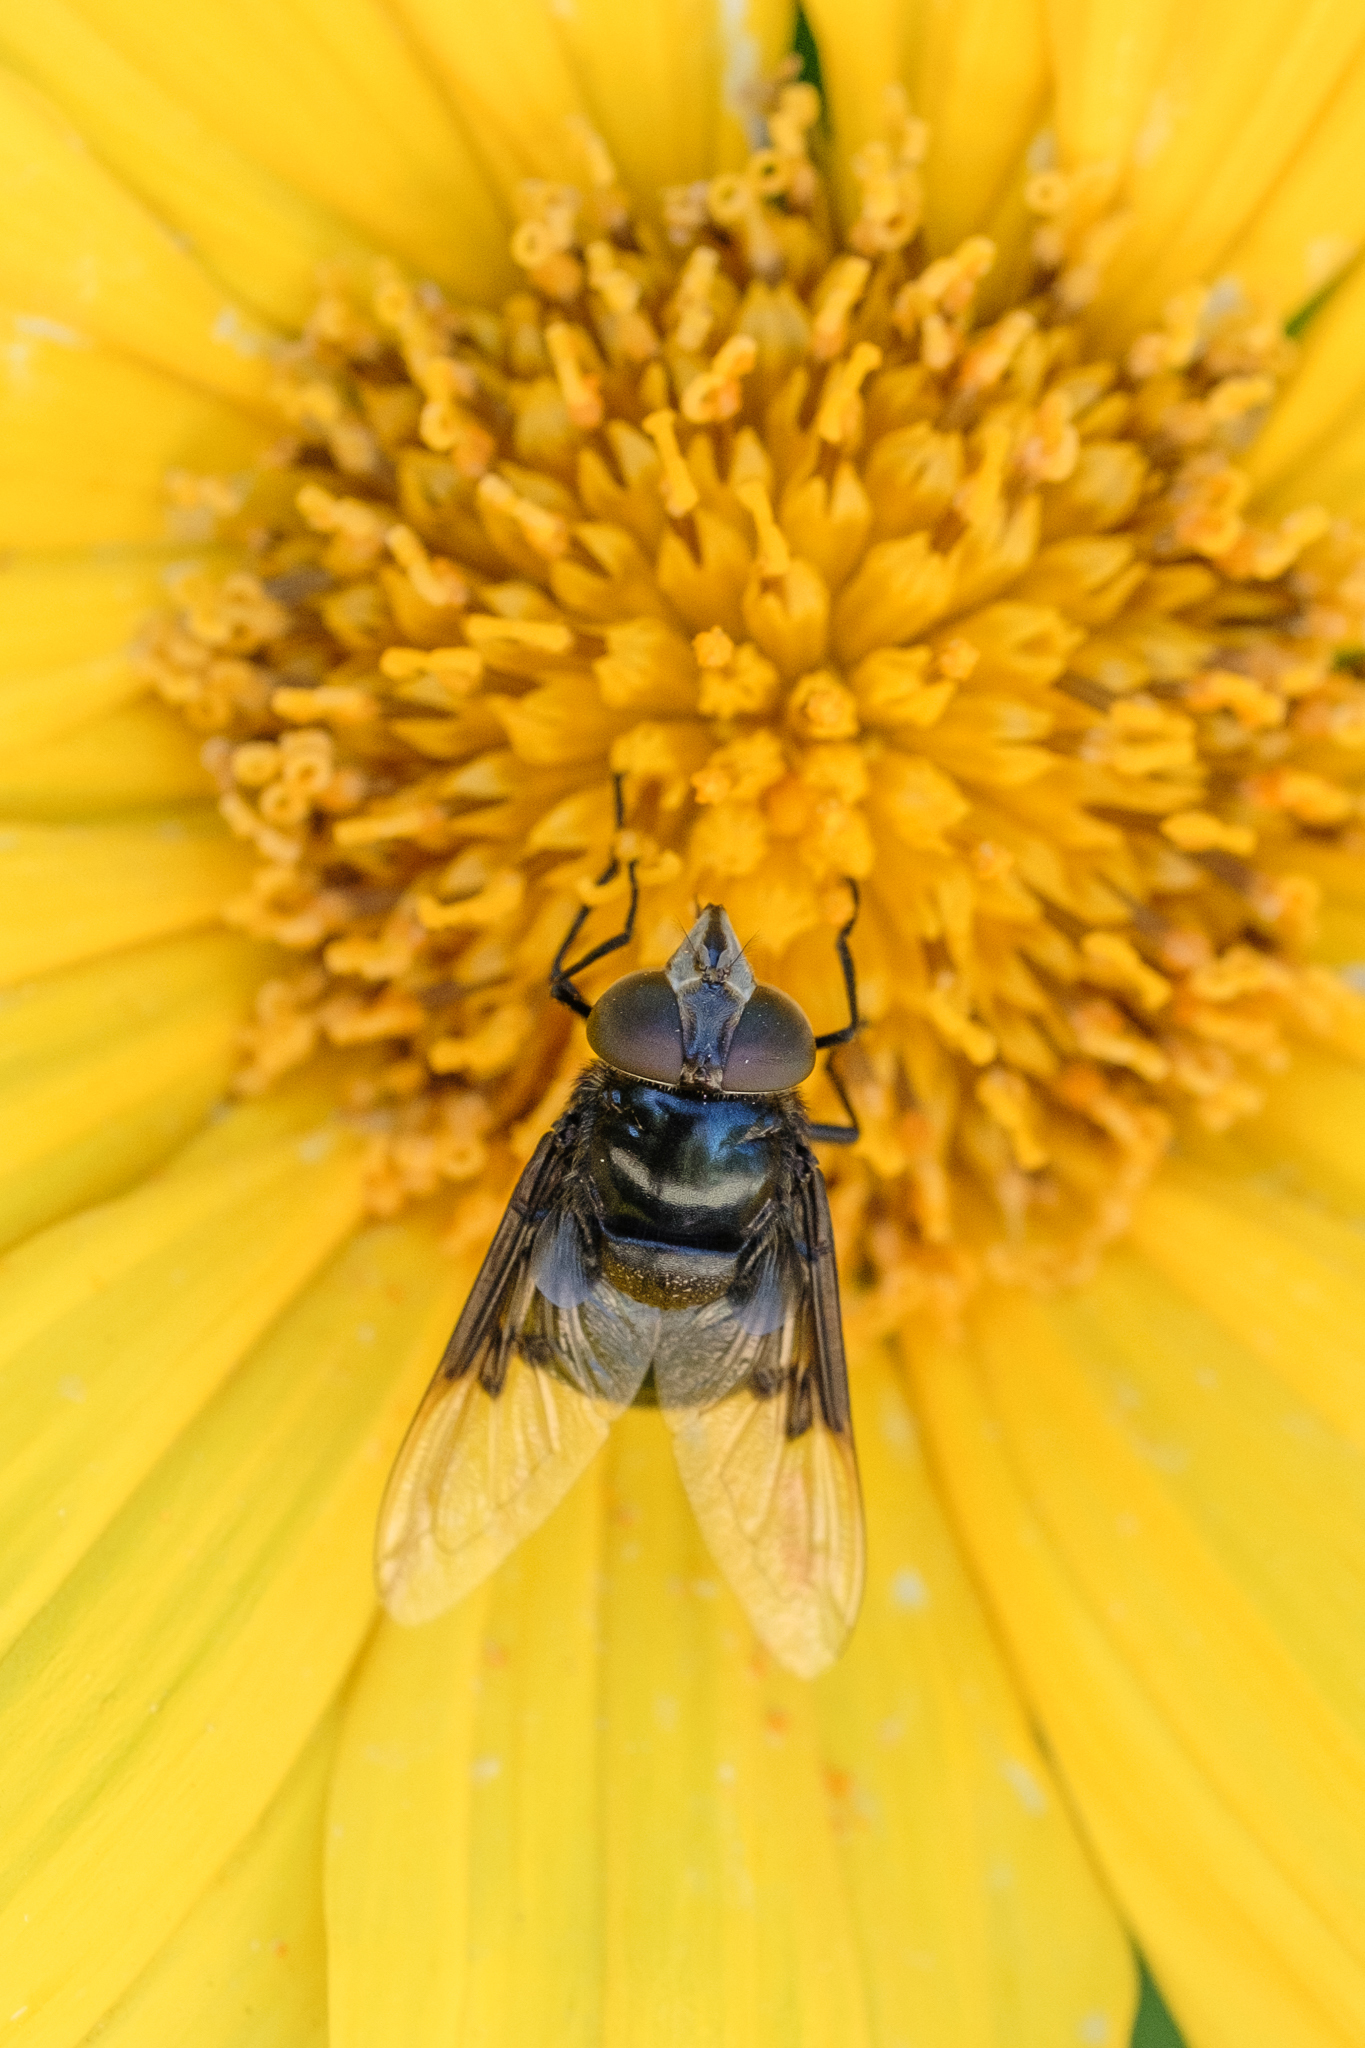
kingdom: Animalia
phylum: Arthropoda
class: Insecta
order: Diptera
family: Syrphidae
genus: Copestylum
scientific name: Copestylum mexicanum
